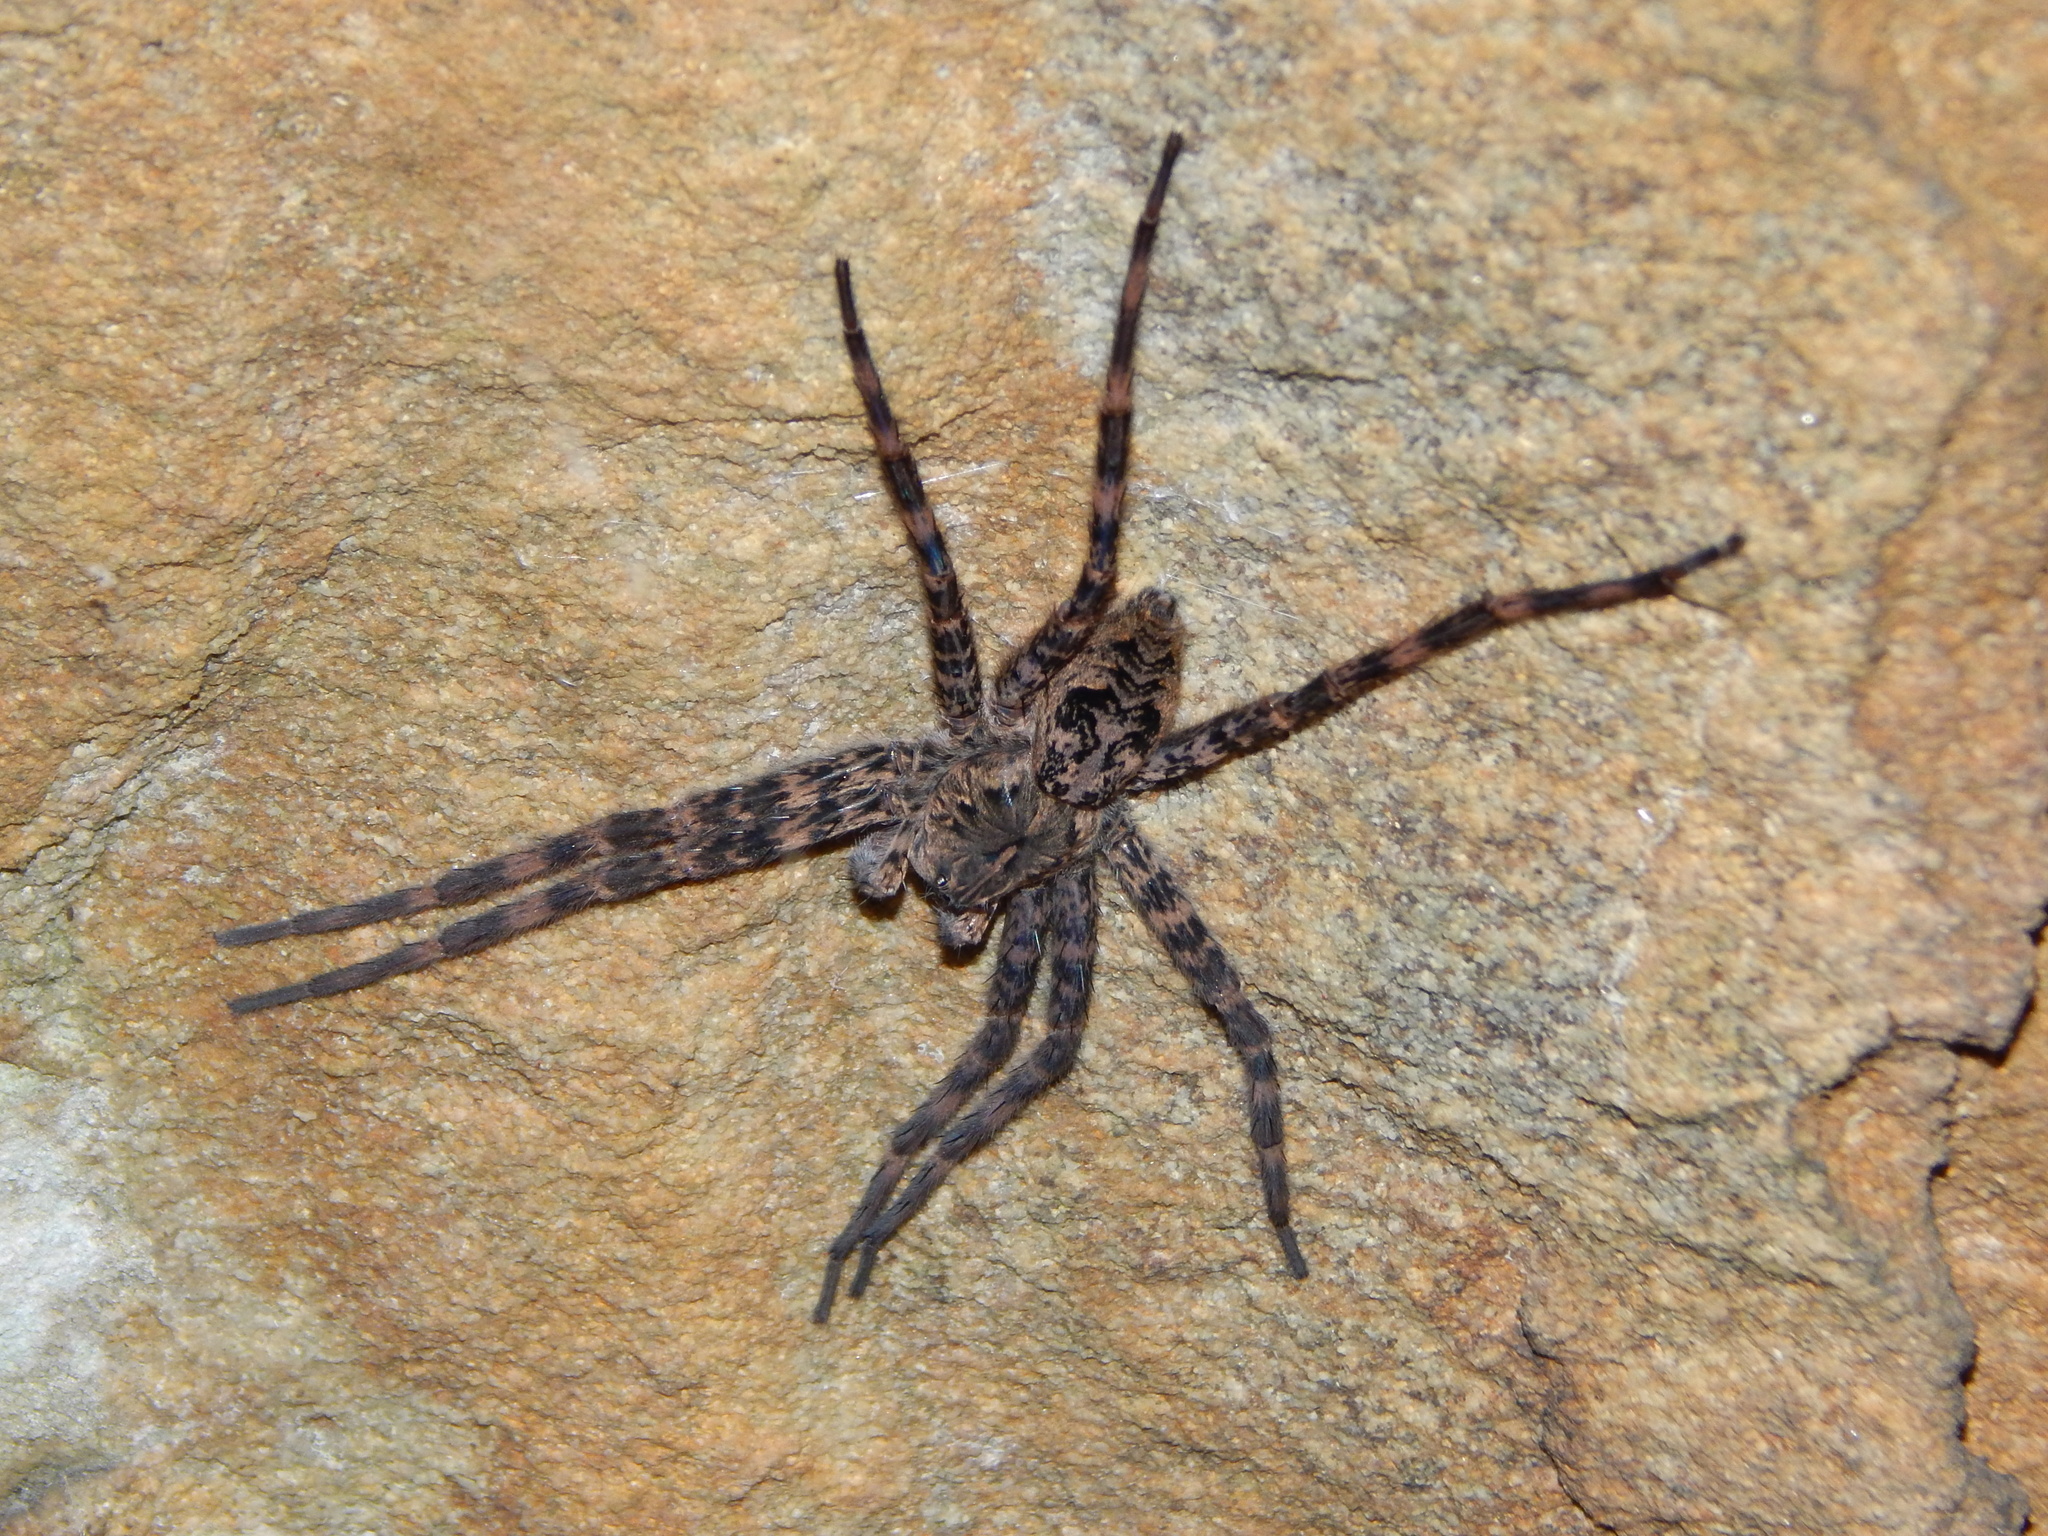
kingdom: Animalia
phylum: Arthropoda
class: Arachnida
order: Araneae
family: Pisauridae
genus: Dolomedes
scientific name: Dolomedes tenebrosus
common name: Dark fishing spider
